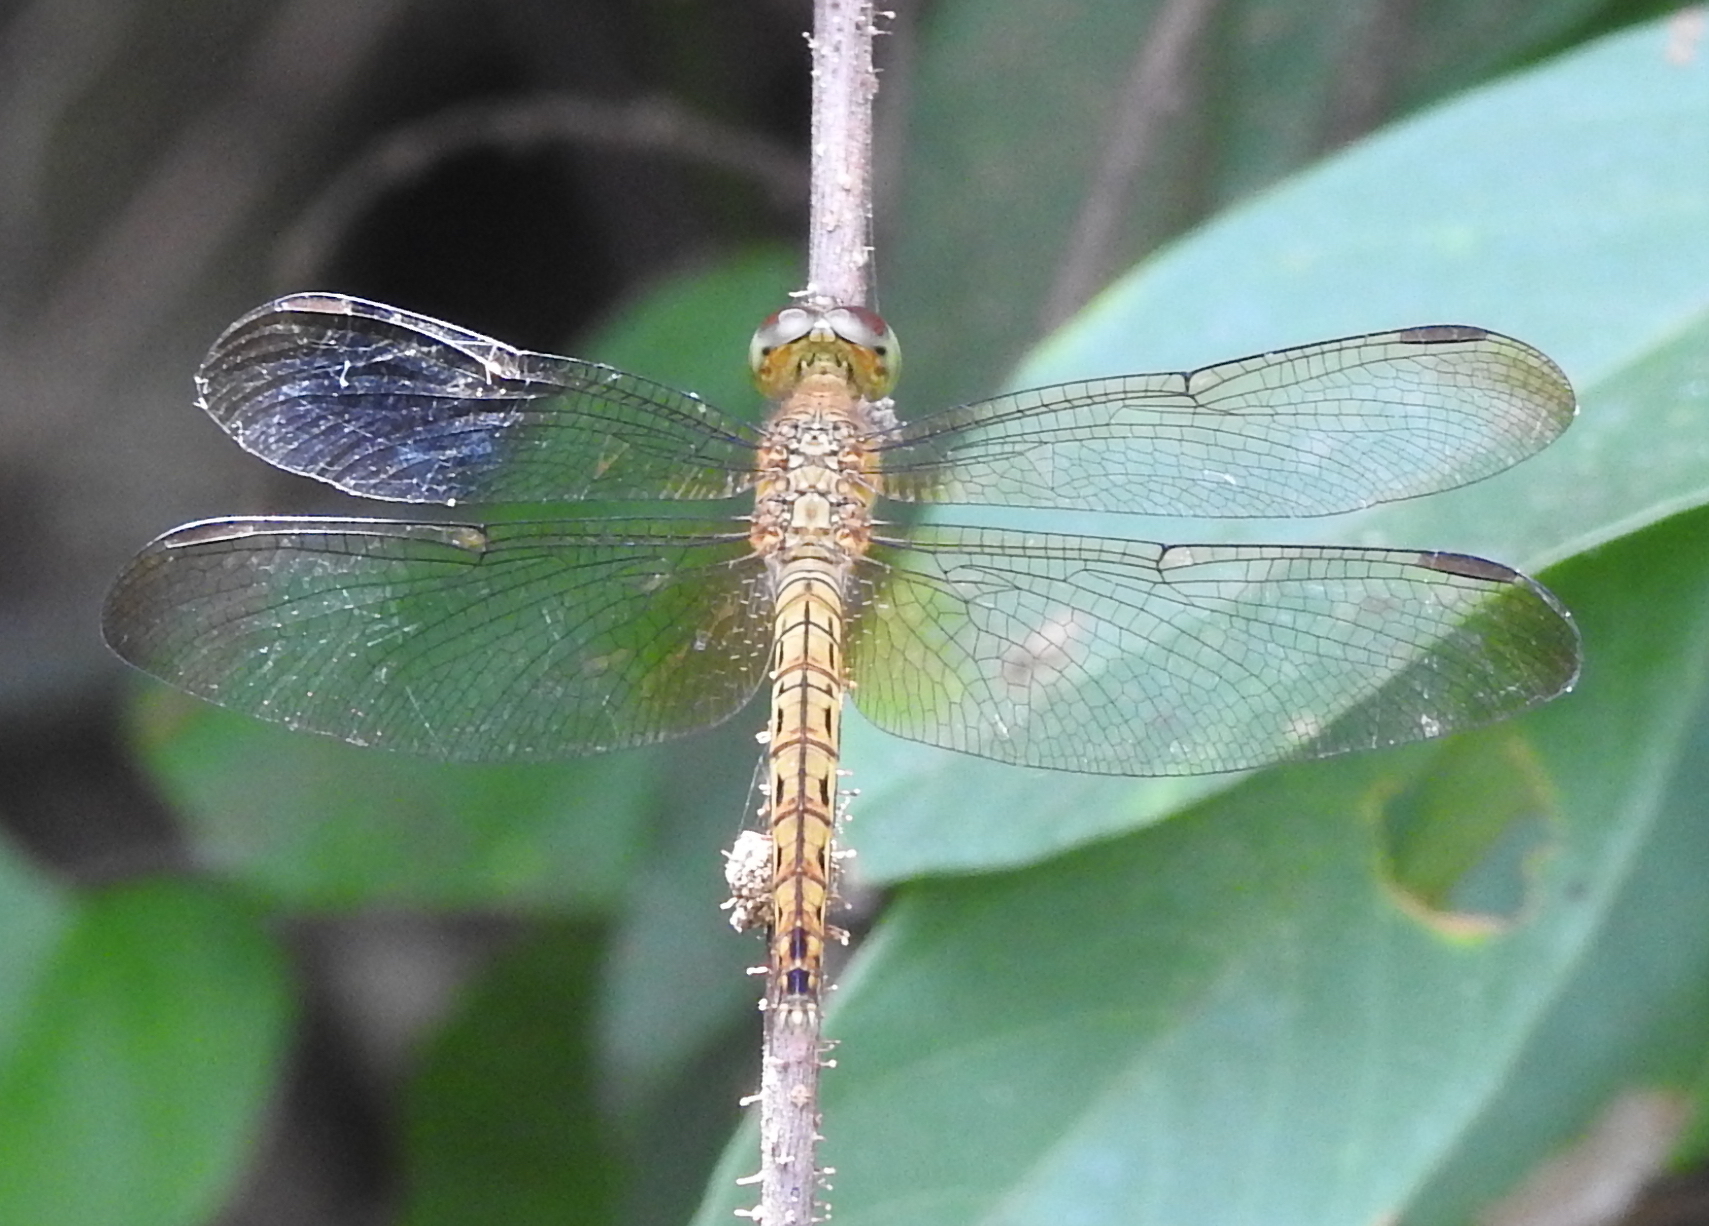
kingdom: Animalia
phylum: Arthropoda
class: Insecta
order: Odonata
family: Libellulidae
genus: Neurothemis
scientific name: Neurothemis fluctuans
